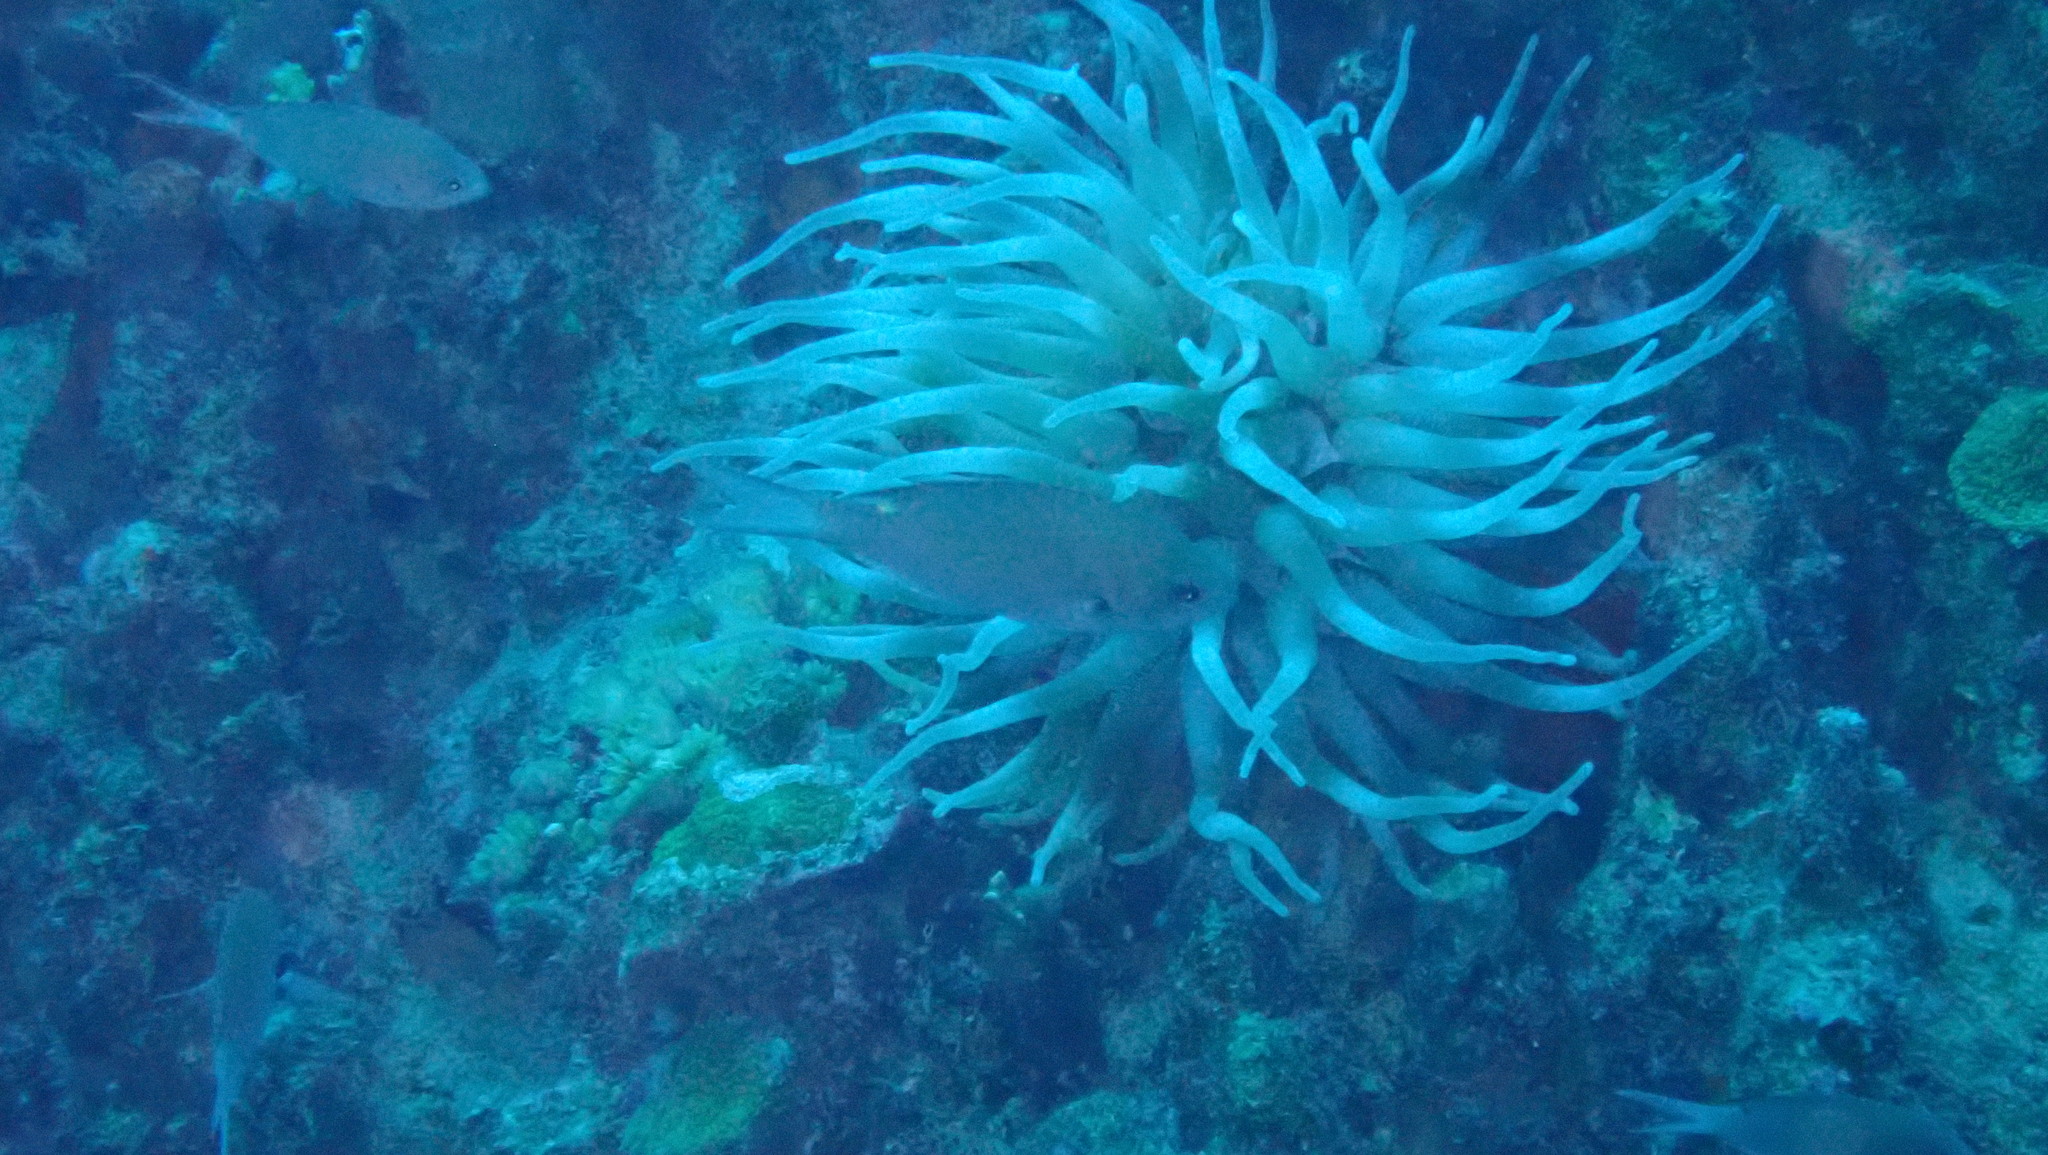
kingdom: Animalia
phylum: Cnidaria
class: Anthozoa
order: Actiniaria
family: Actiniidae
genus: Condylactis
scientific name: Condylactis gigantea
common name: Giant caribbean anemone
